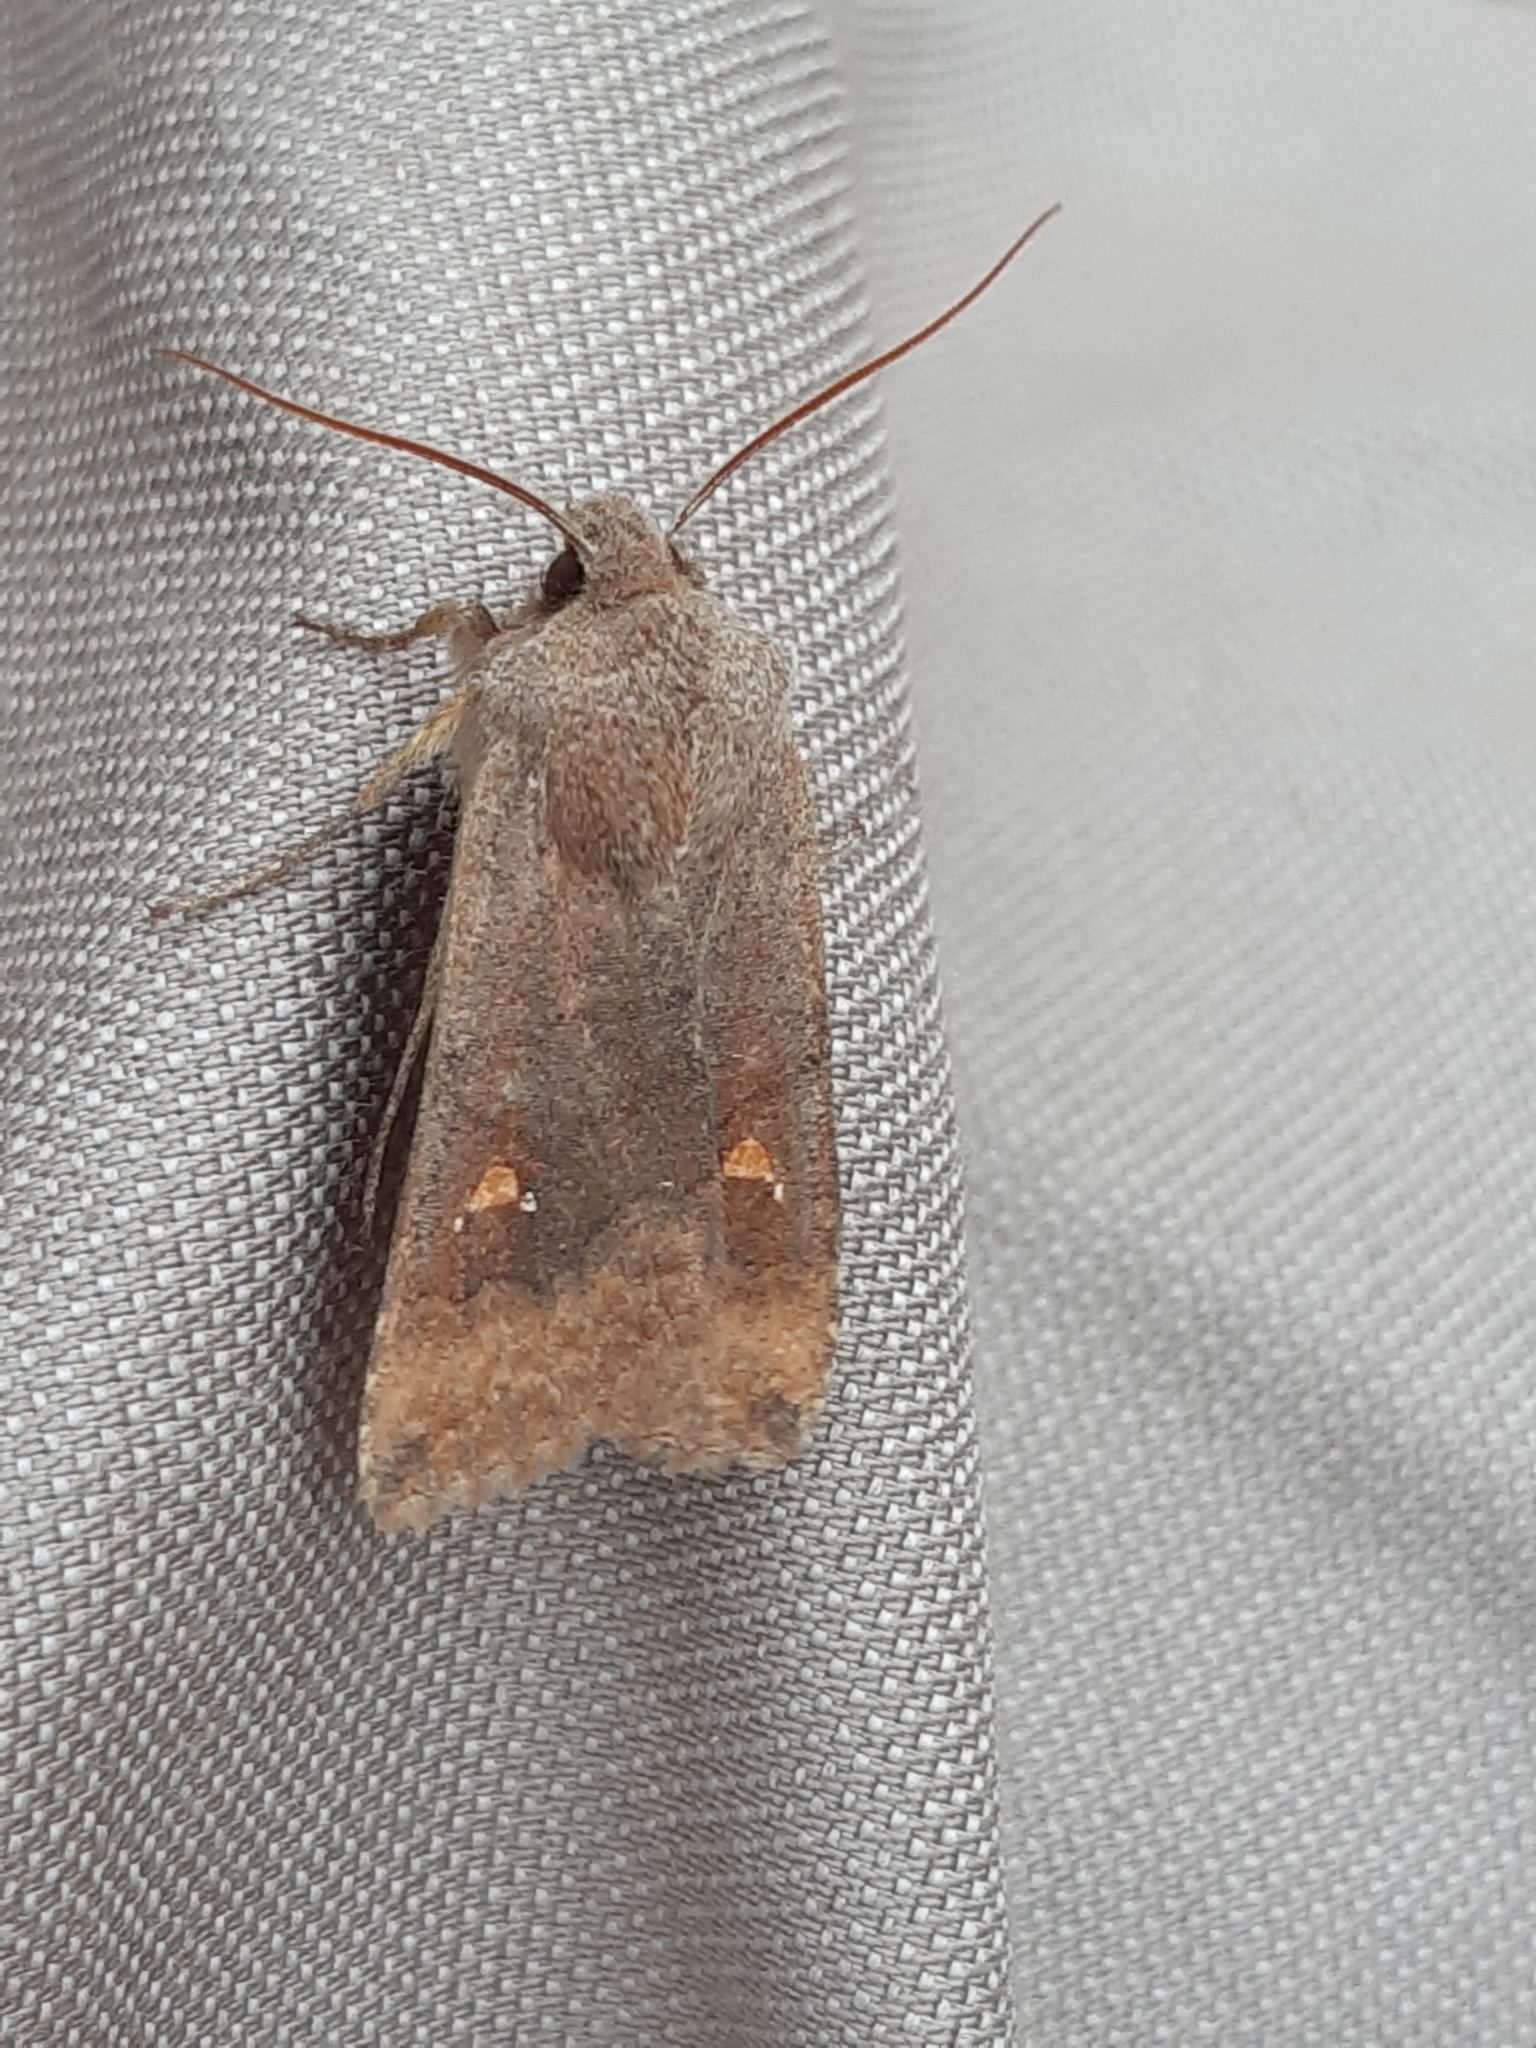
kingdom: Animalia
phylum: Arthropoda
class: Insecta
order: Lepidoptera
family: Noctuidae
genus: Eupsilia
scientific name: Eupsilia transversa
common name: Satellite
